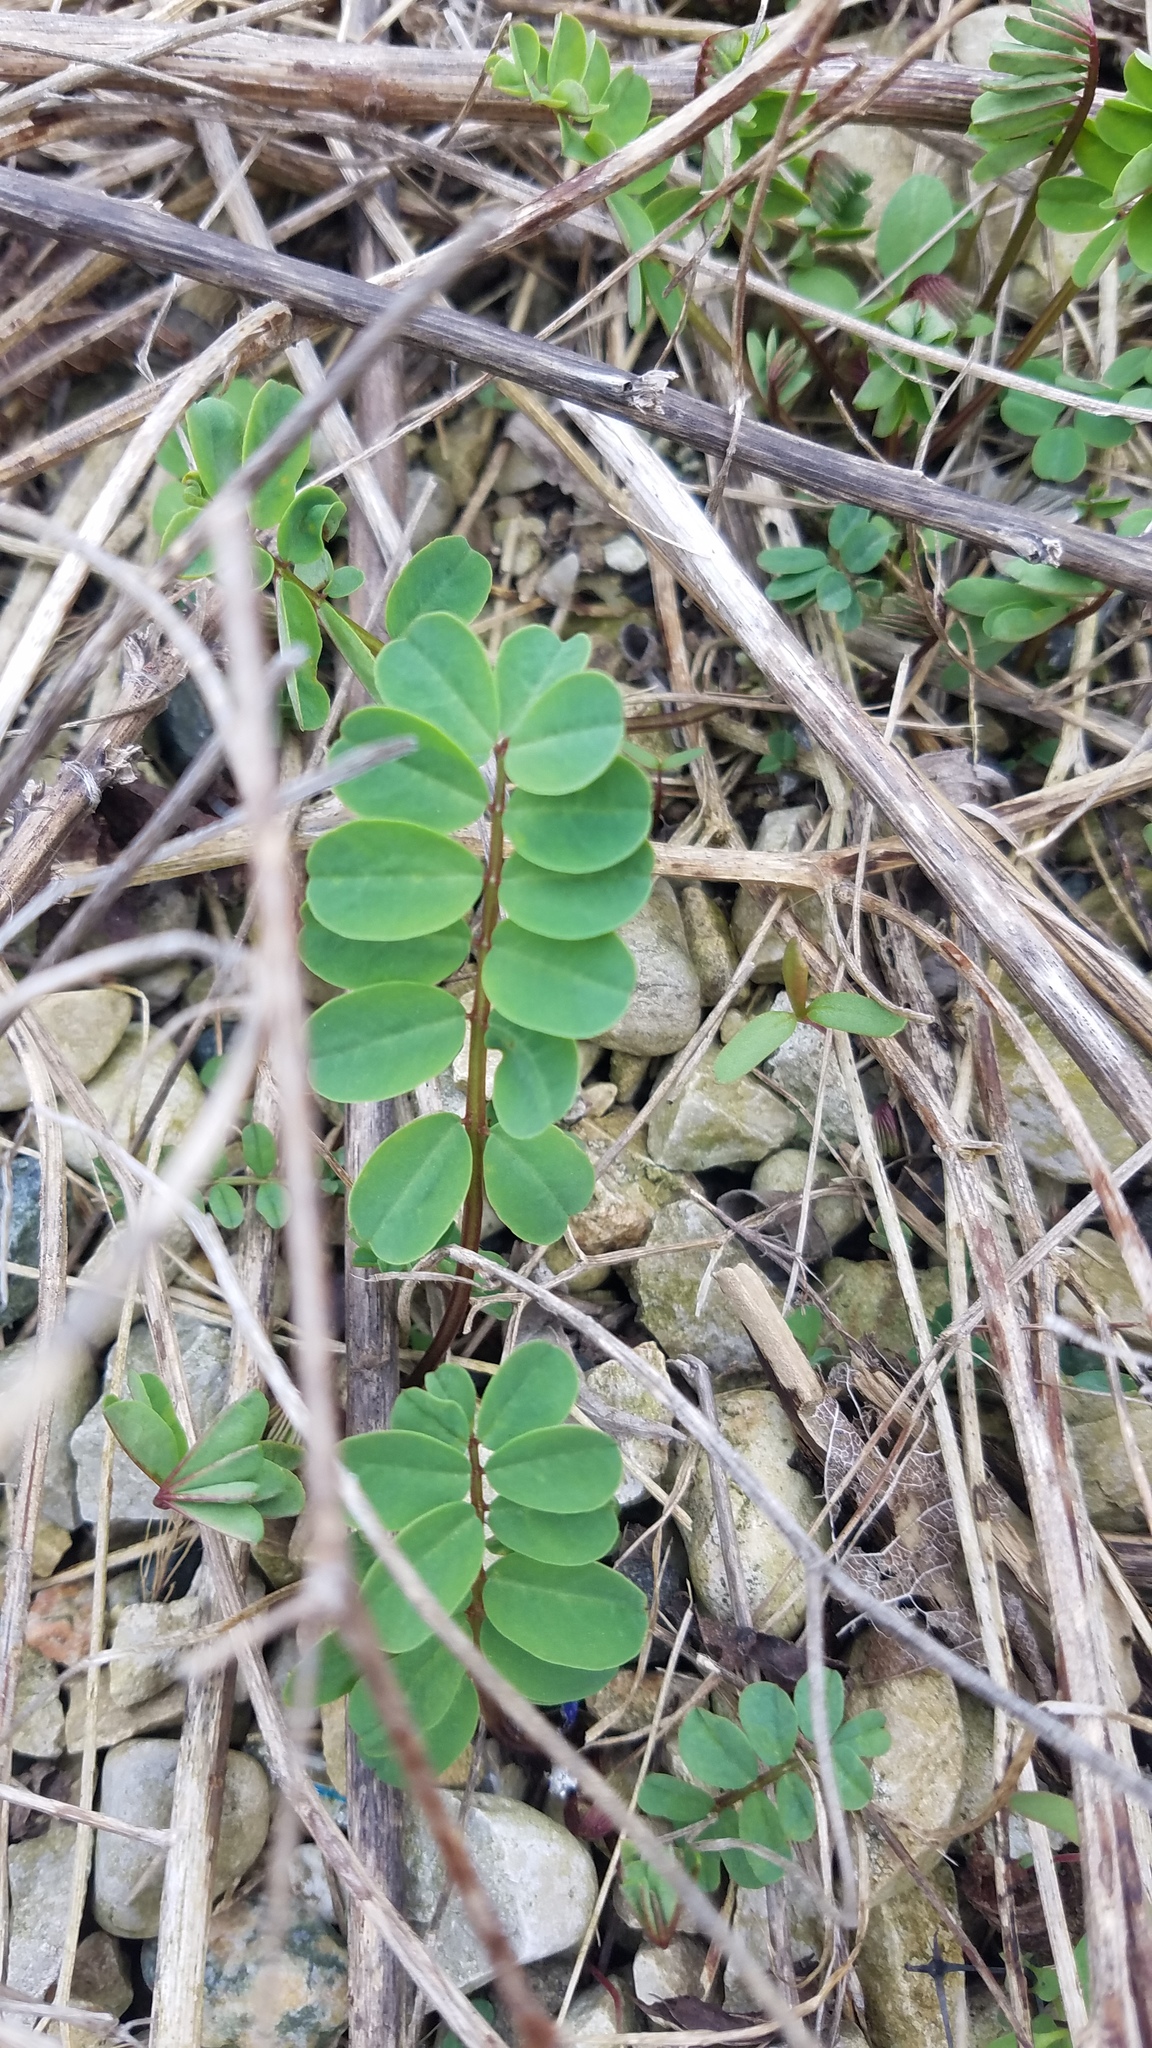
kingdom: Plantae
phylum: Tracheophyta
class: Magnoliopsida
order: Fabales
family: Fabaceae
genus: Coronilla
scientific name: Coronilla varia
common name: Crownvetch
